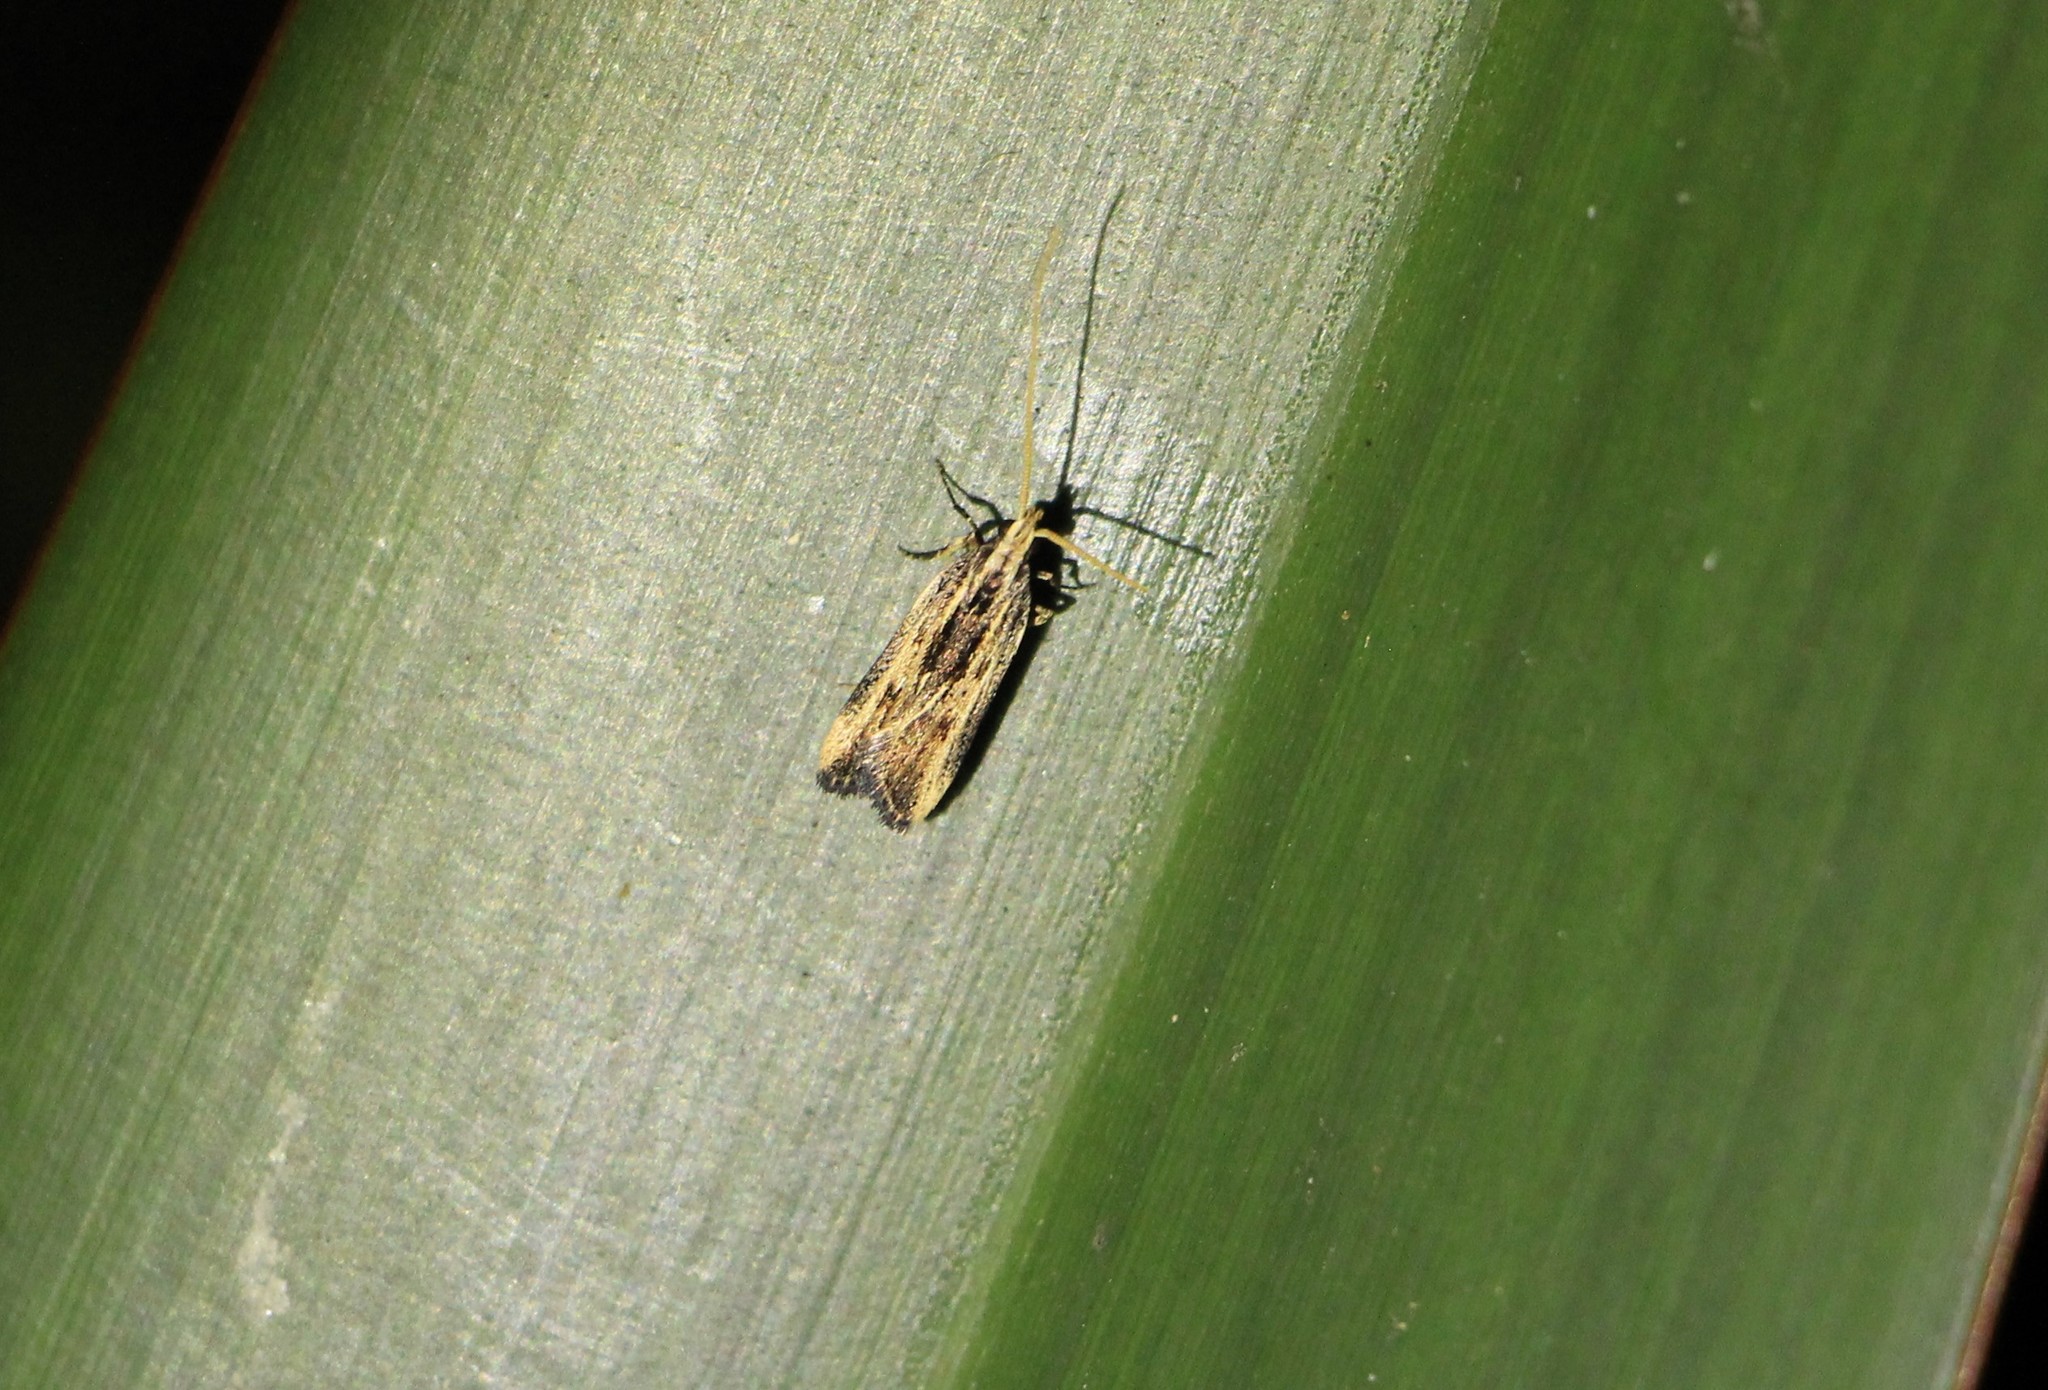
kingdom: Animalia
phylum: Arthropoda
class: Insecta
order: Lepidoptera
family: Lecithoceridae
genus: Sarisophora
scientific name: Sarisophora leucoscia
